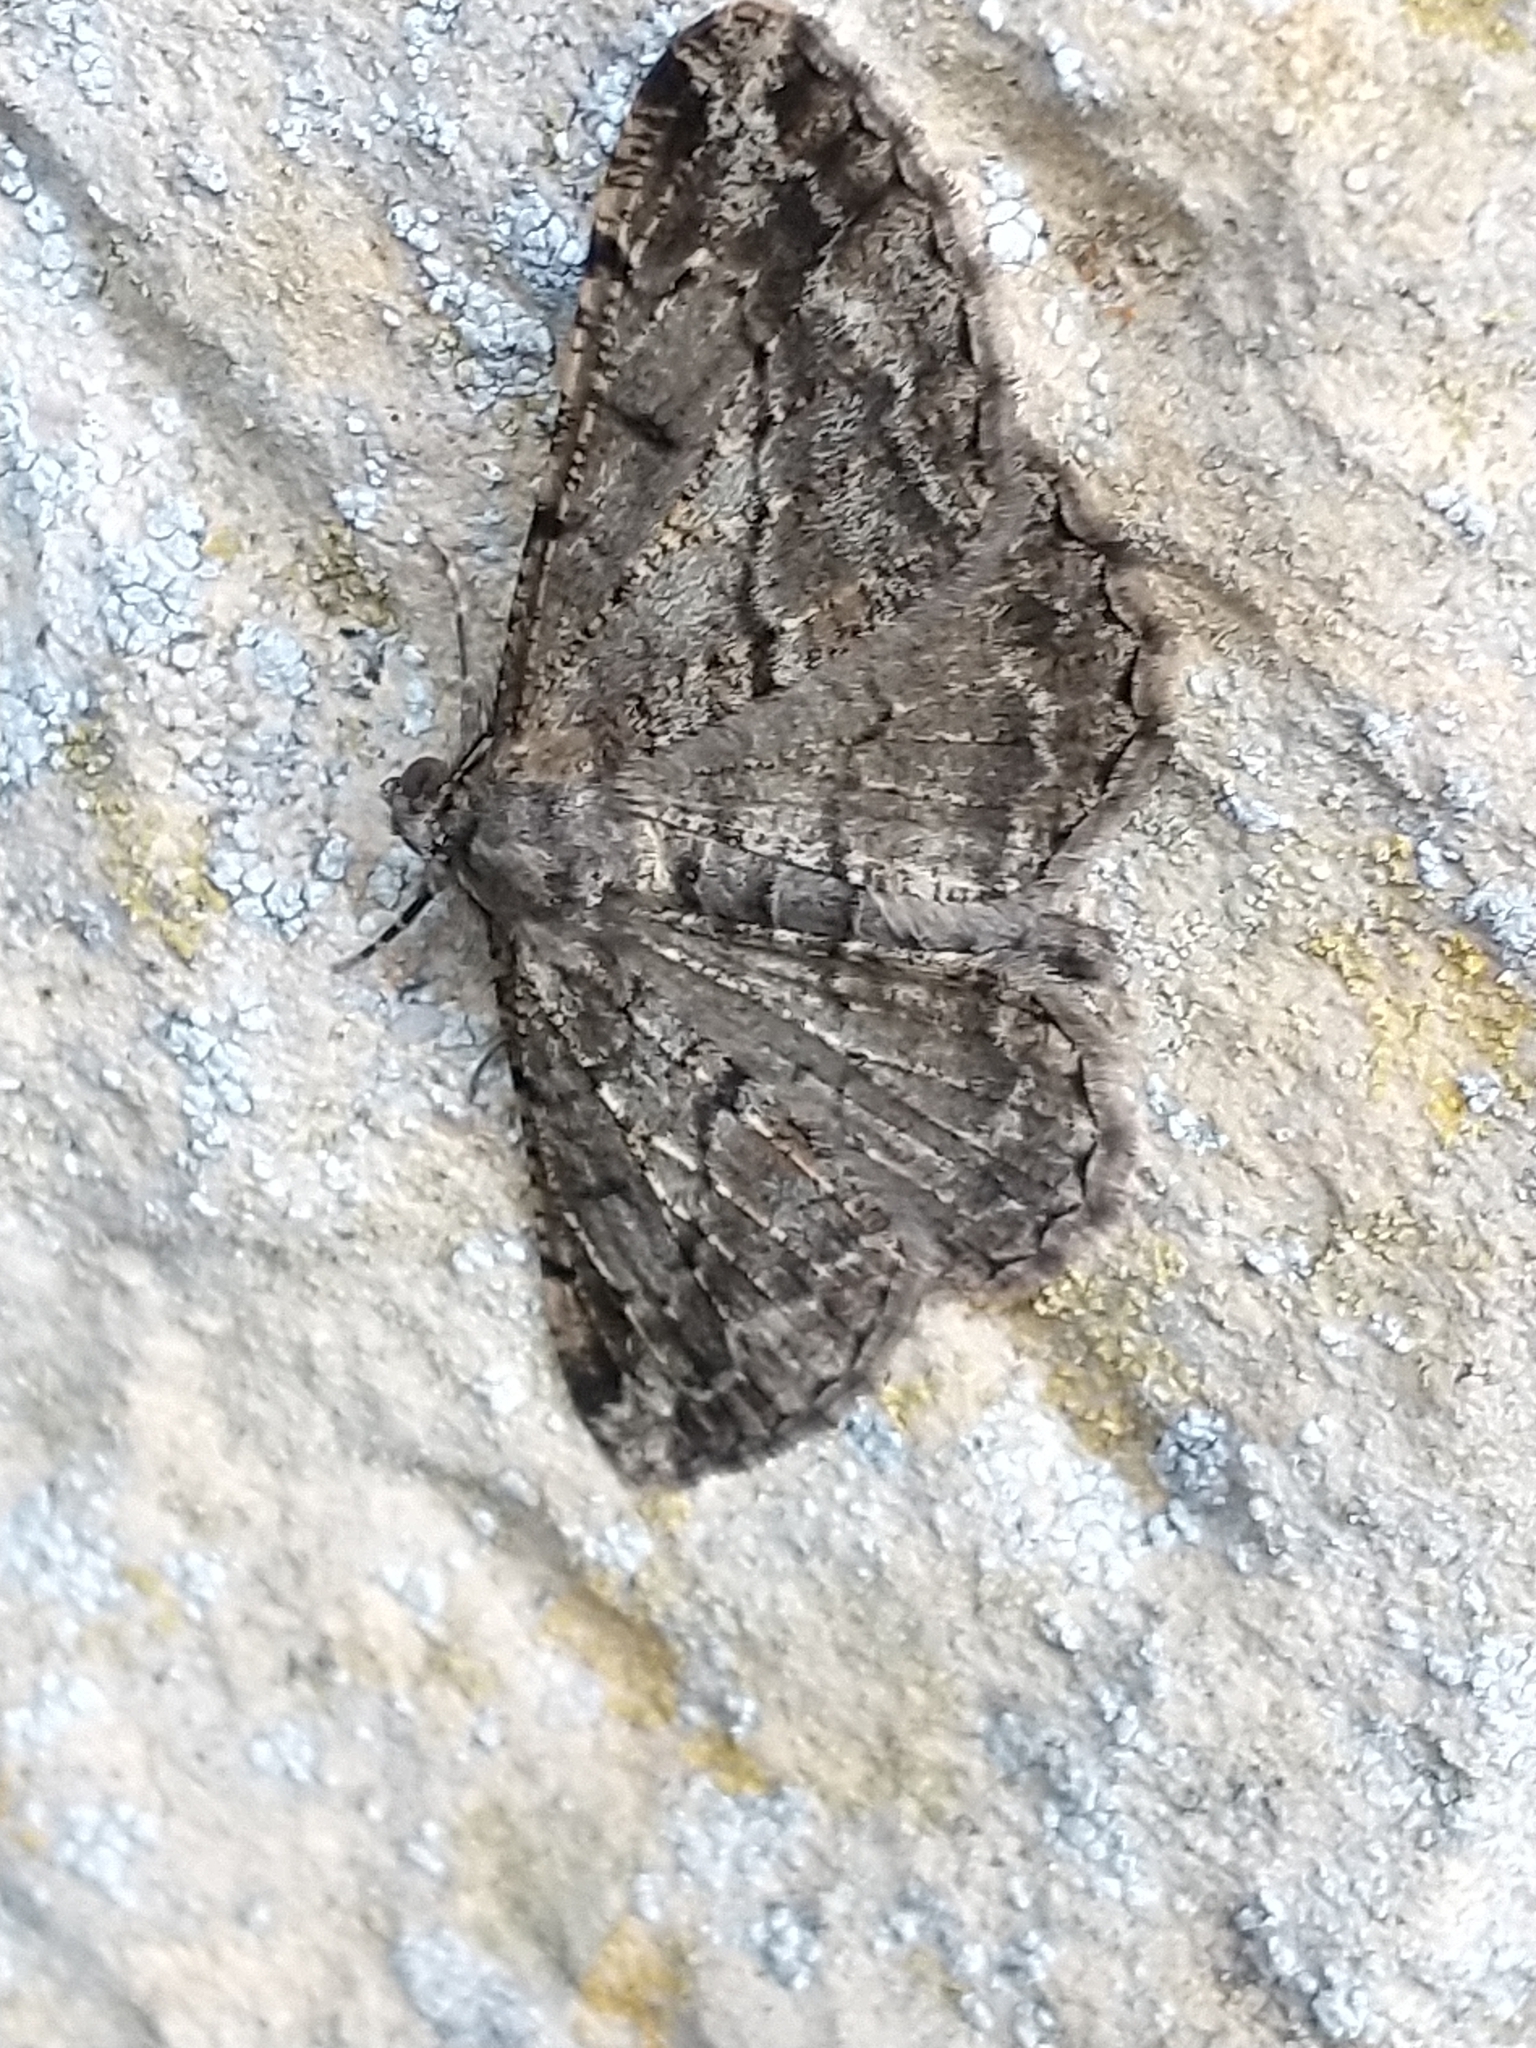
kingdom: Animalia
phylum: Arthropoda
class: Insecta
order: Lepidoptera
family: Geometridae
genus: Peribatodes
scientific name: Peribatodes rhomboidaria
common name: Willow beauty
